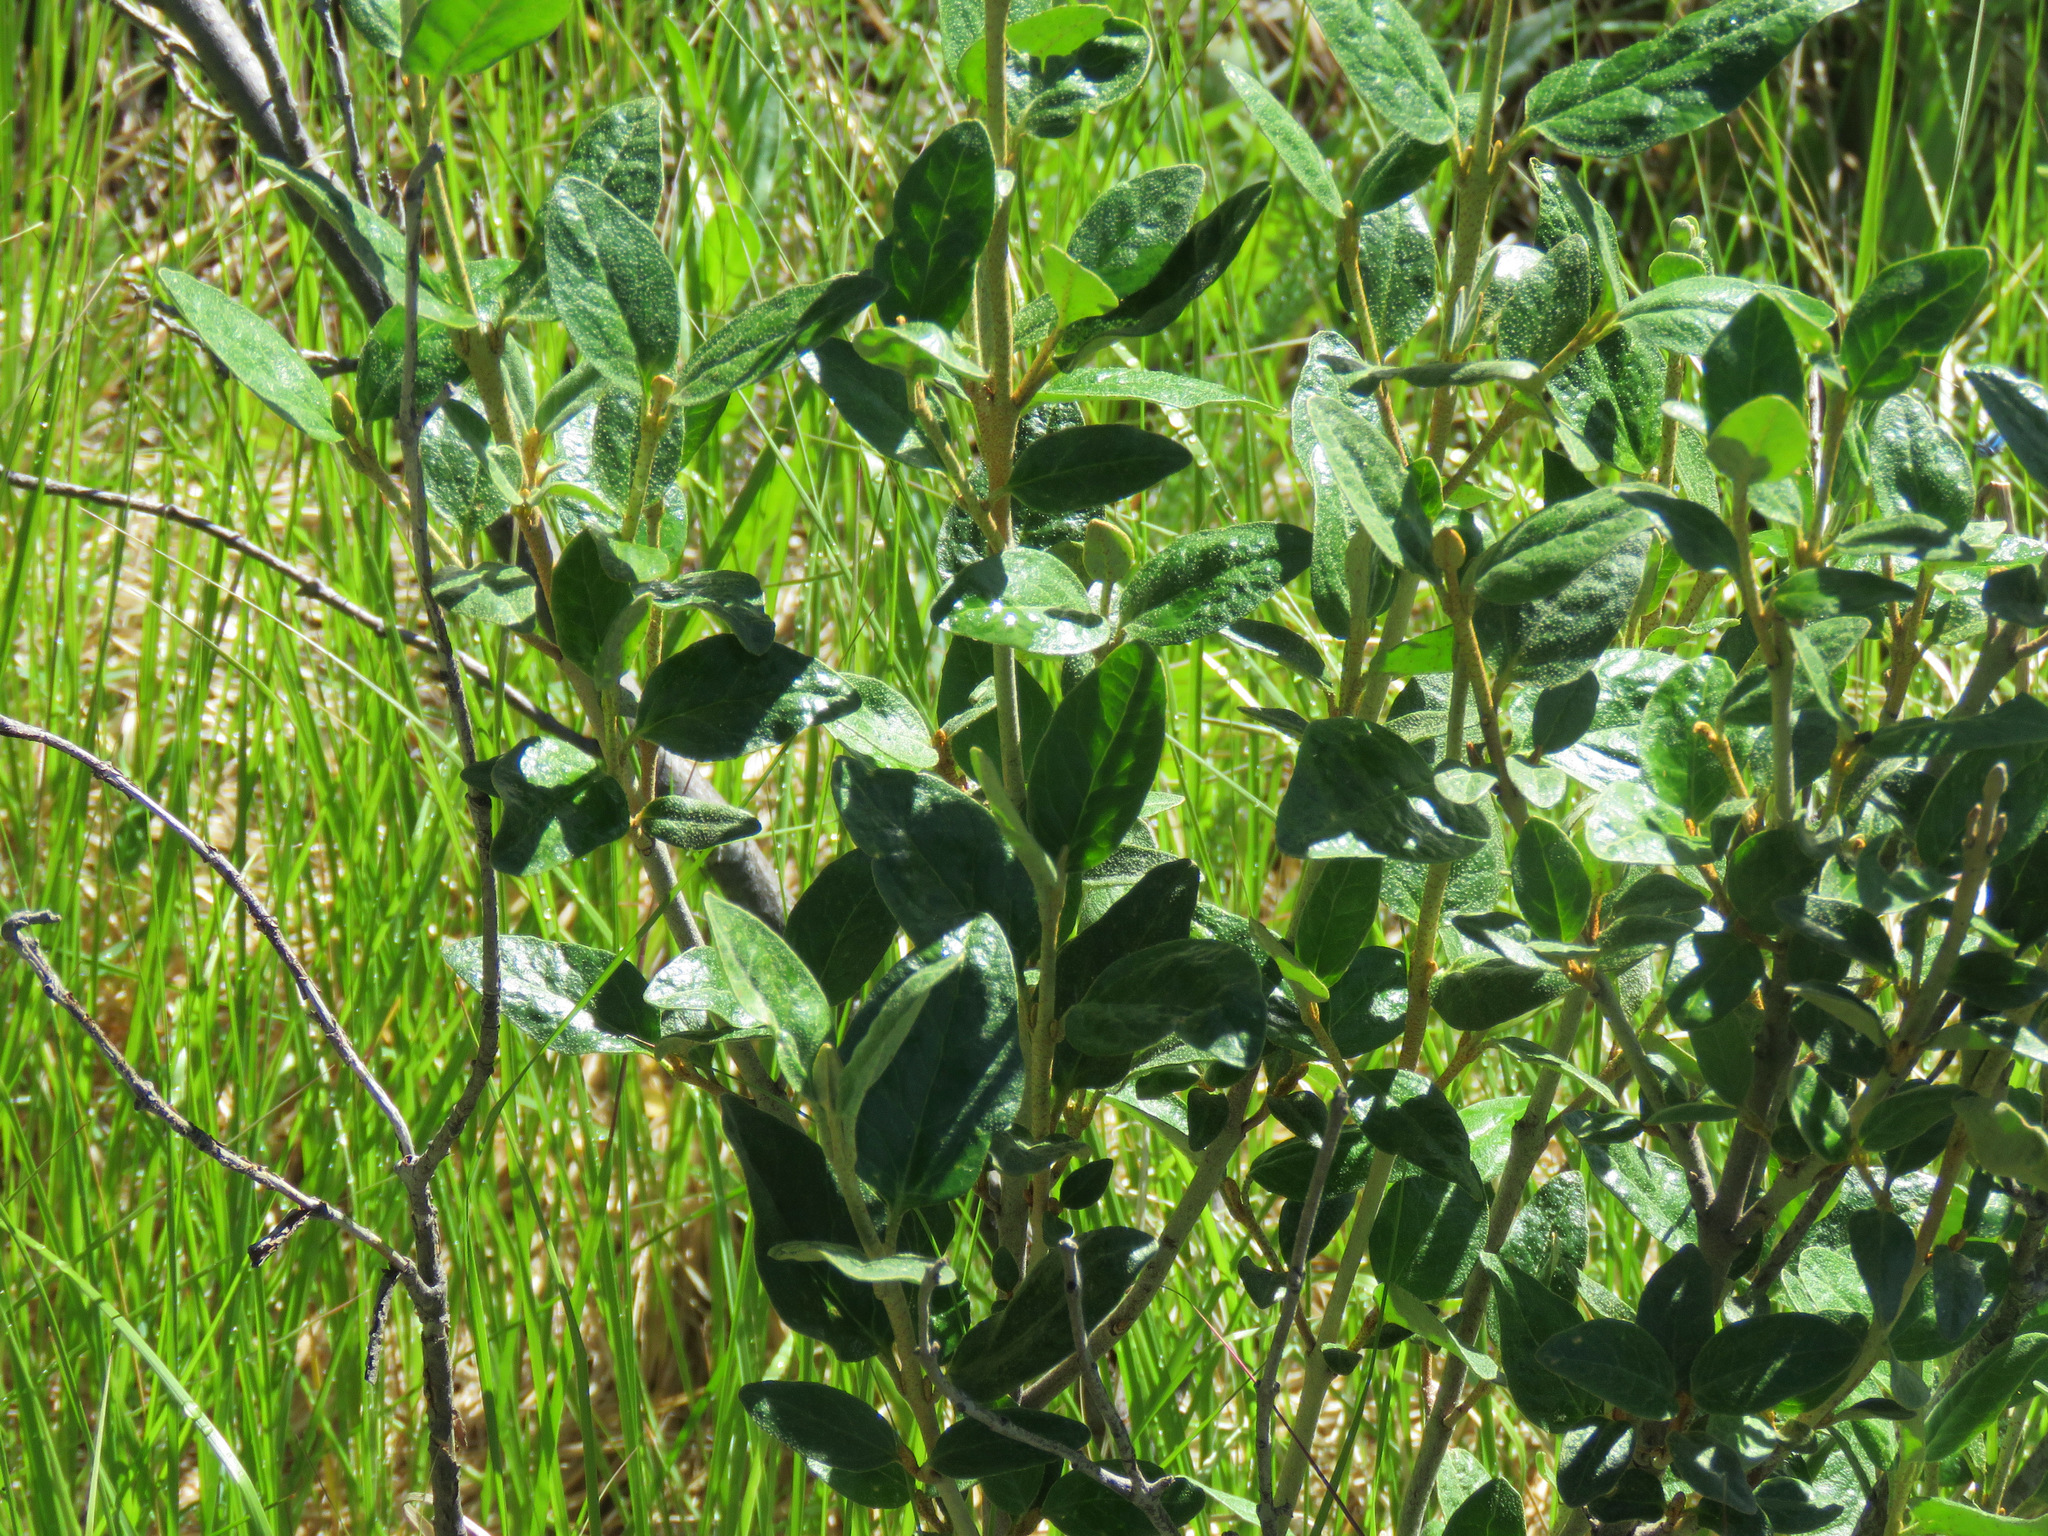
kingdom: Plantae
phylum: Tracheophyta
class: Magnoliopsida
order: Rosales
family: Elaeagnaceae
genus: Shepherdia
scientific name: Shepherdia canadensis
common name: Soapberry
